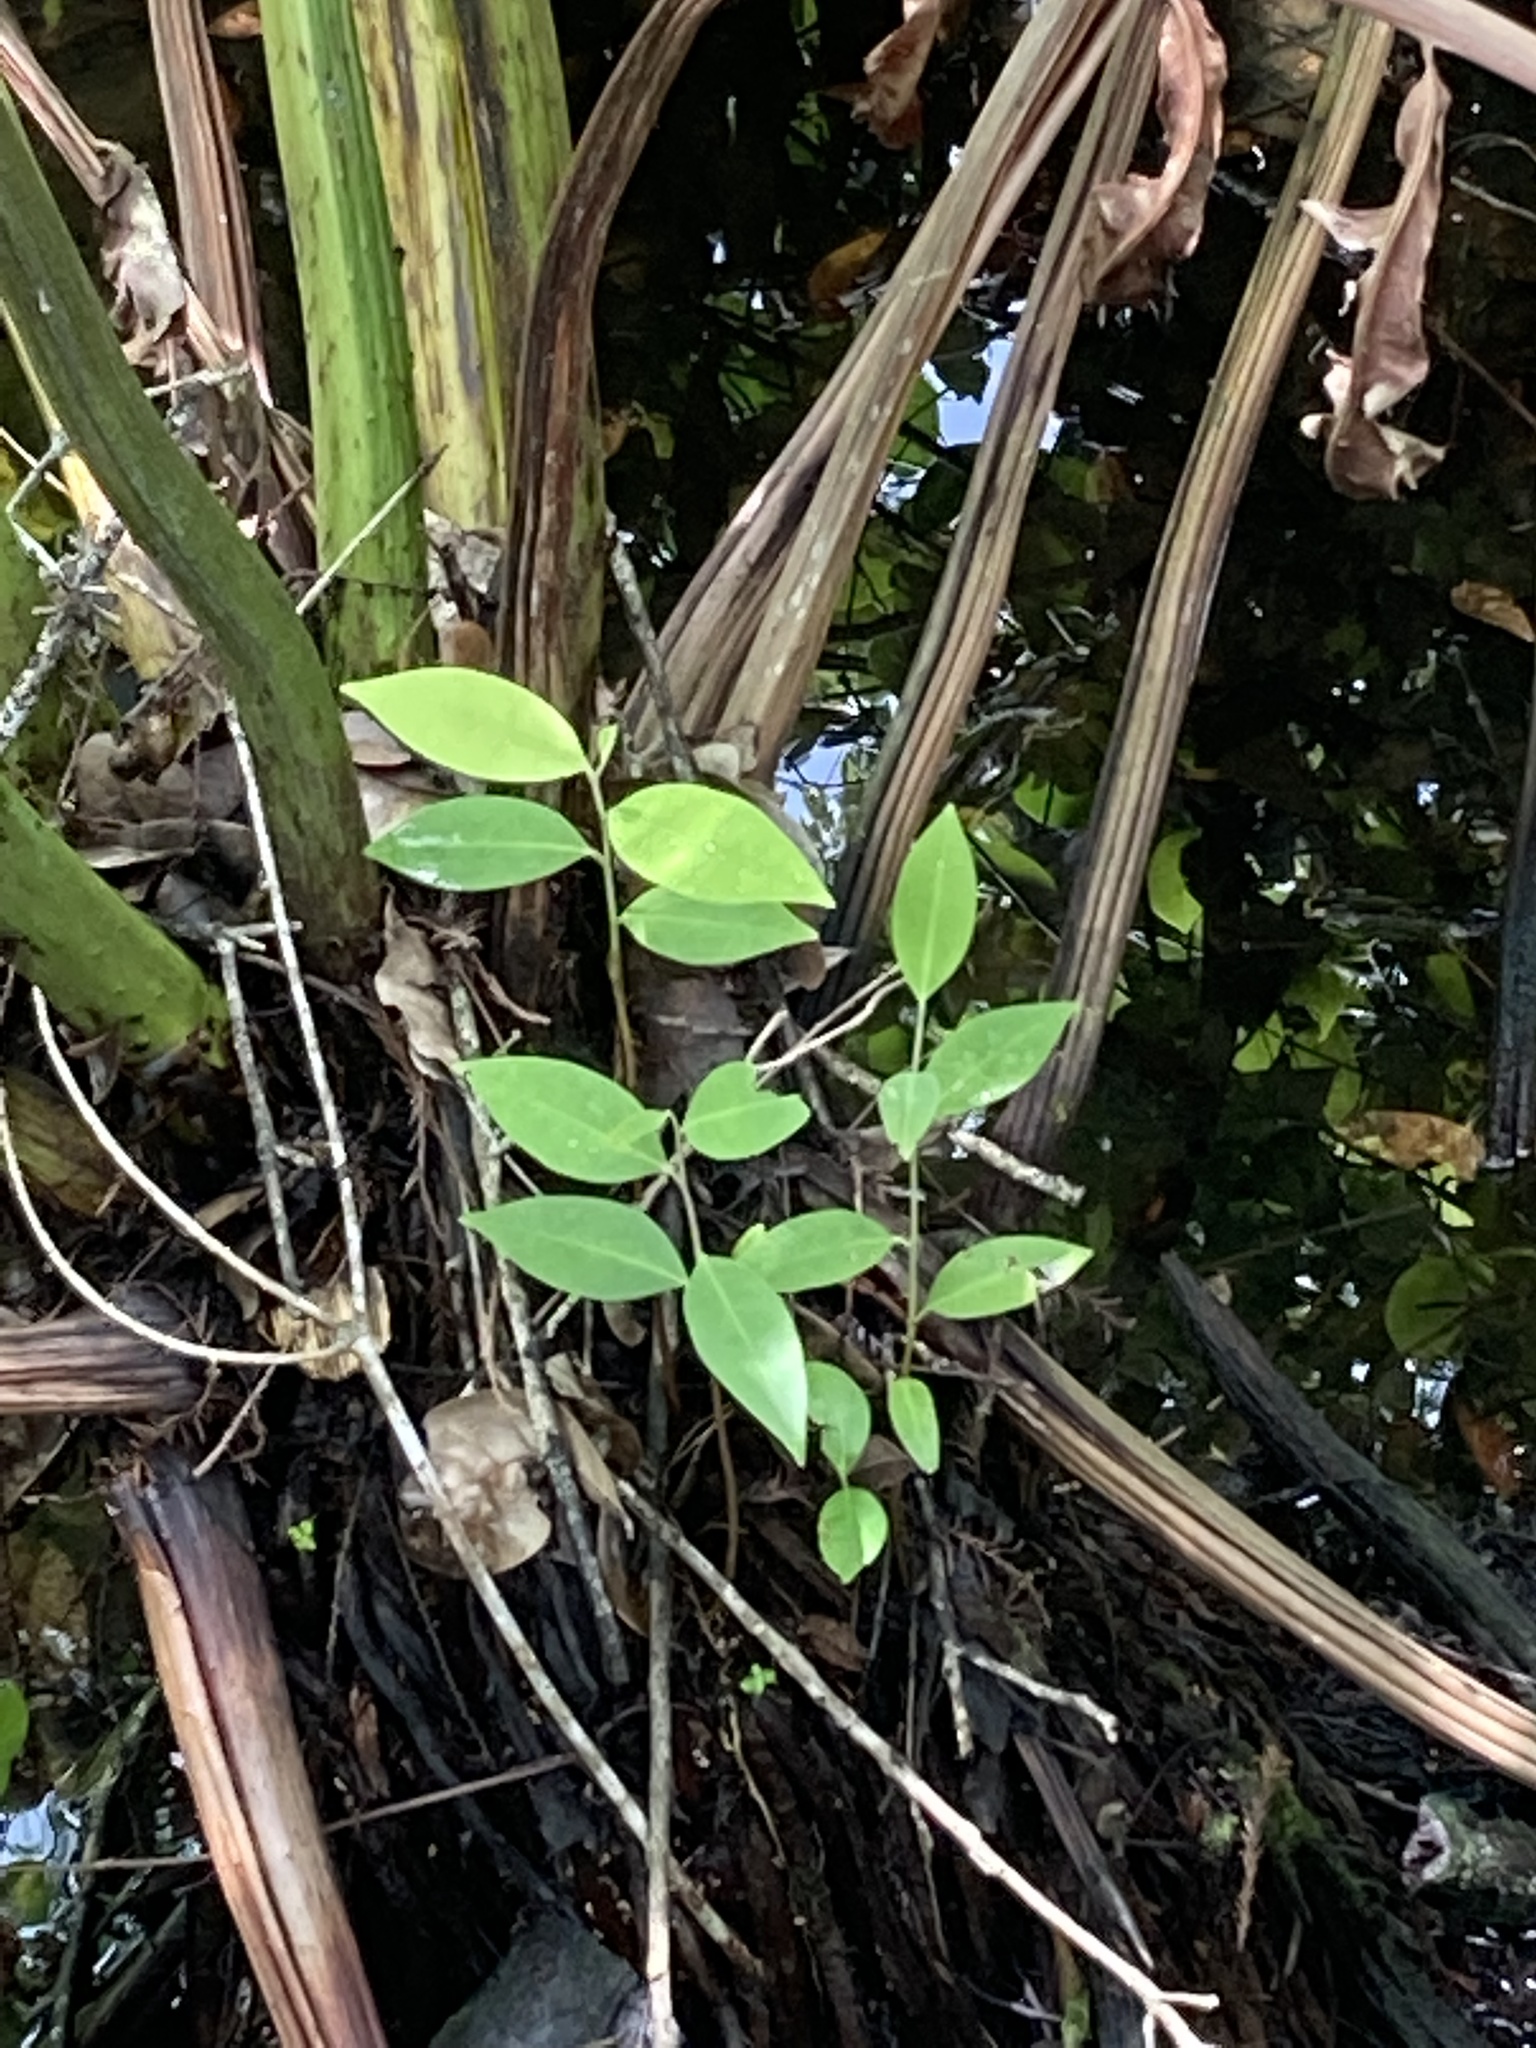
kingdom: Plantae
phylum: Tracheophyta
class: Magnoliopsida
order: Magnoliales
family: Annonaceae
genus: Annona
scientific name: Annona glabra
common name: Monkey apple
